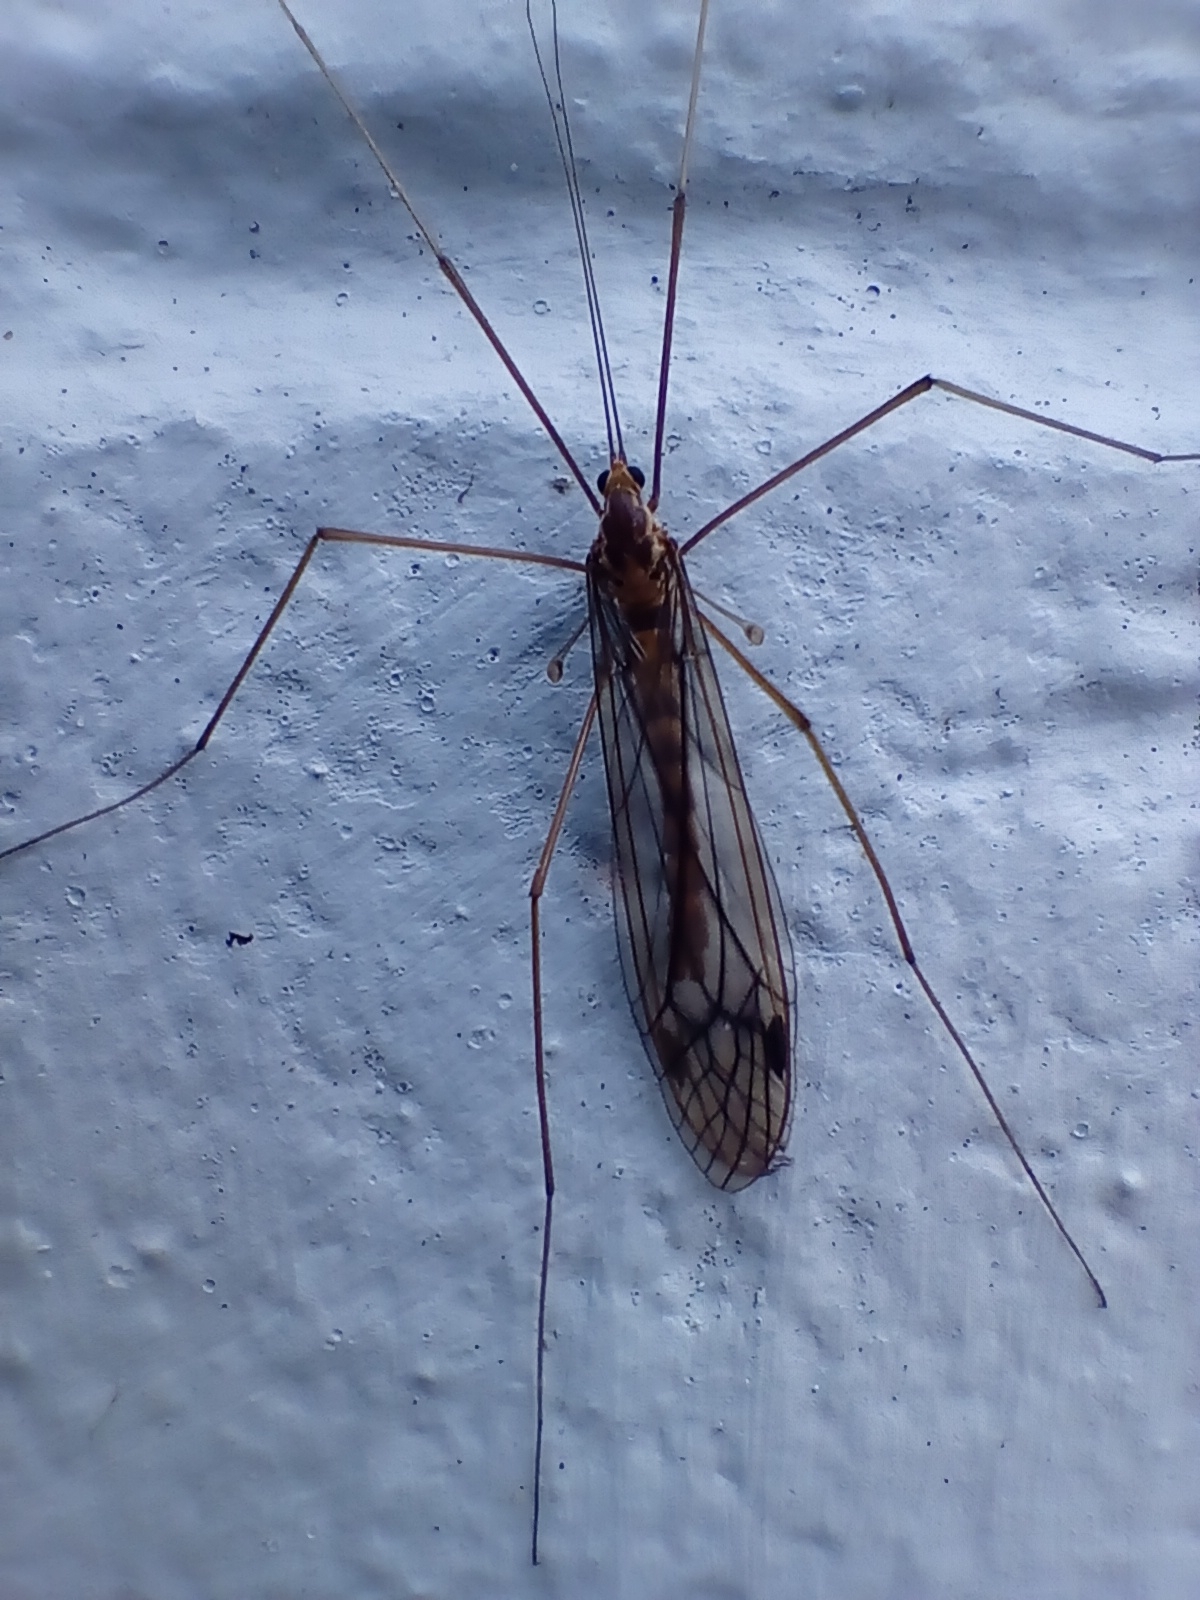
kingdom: Animalia
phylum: Arthropoda
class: Insecta
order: Diptera
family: Tipulidae
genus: Leptotarsus
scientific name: Leptotarsus pallidus
